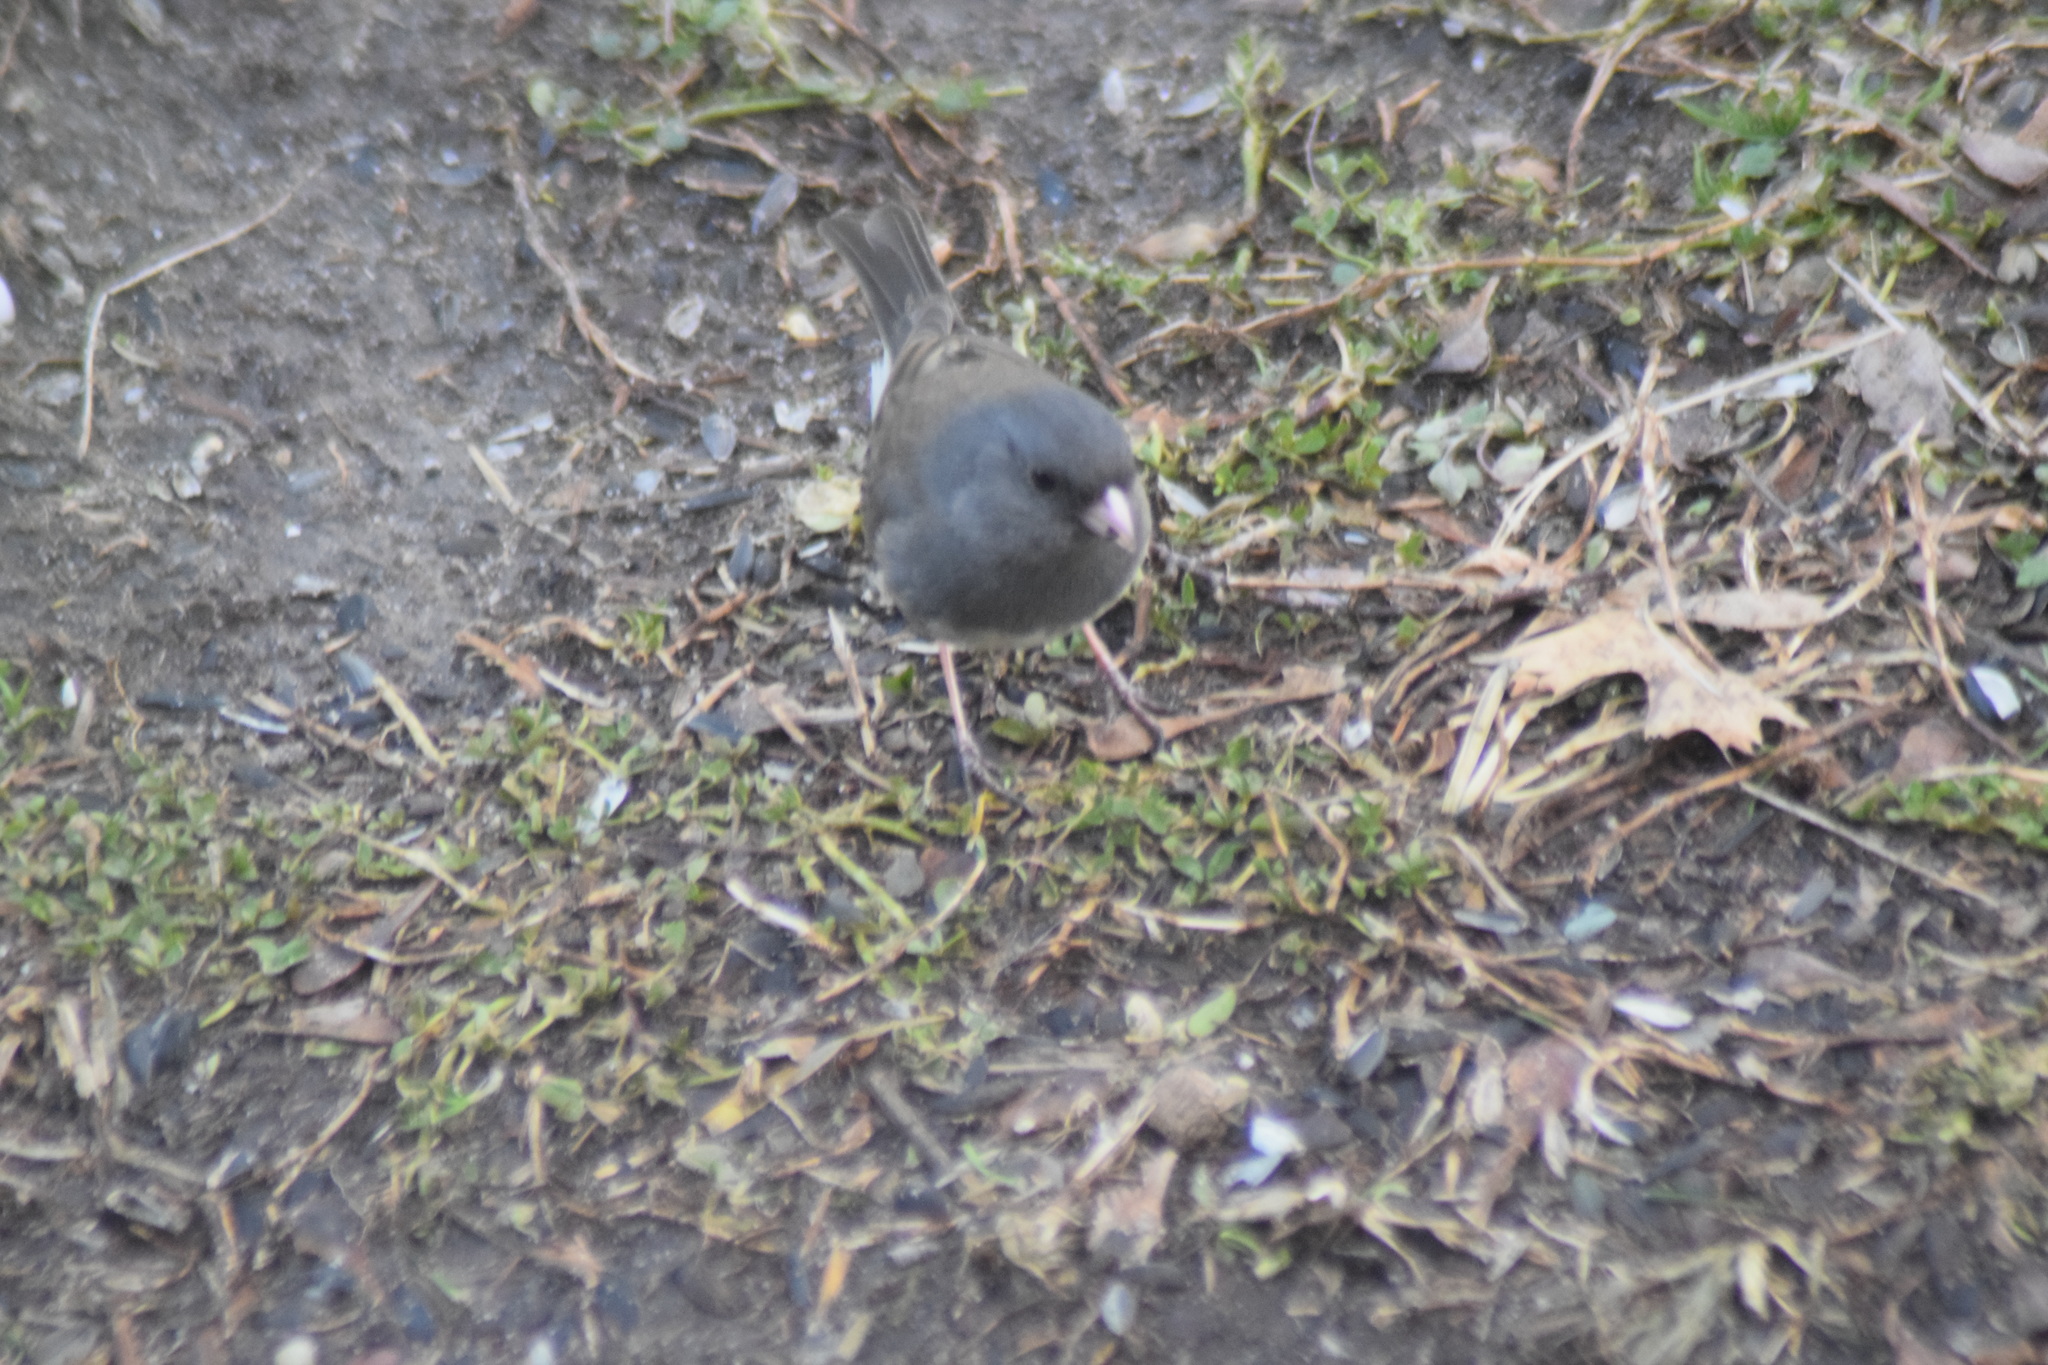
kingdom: Animalia
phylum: Chordata
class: Aves
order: Passeriformes
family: Passerellidae
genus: Junco
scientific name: Junco hyemalis
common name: Dark-eyed junco
